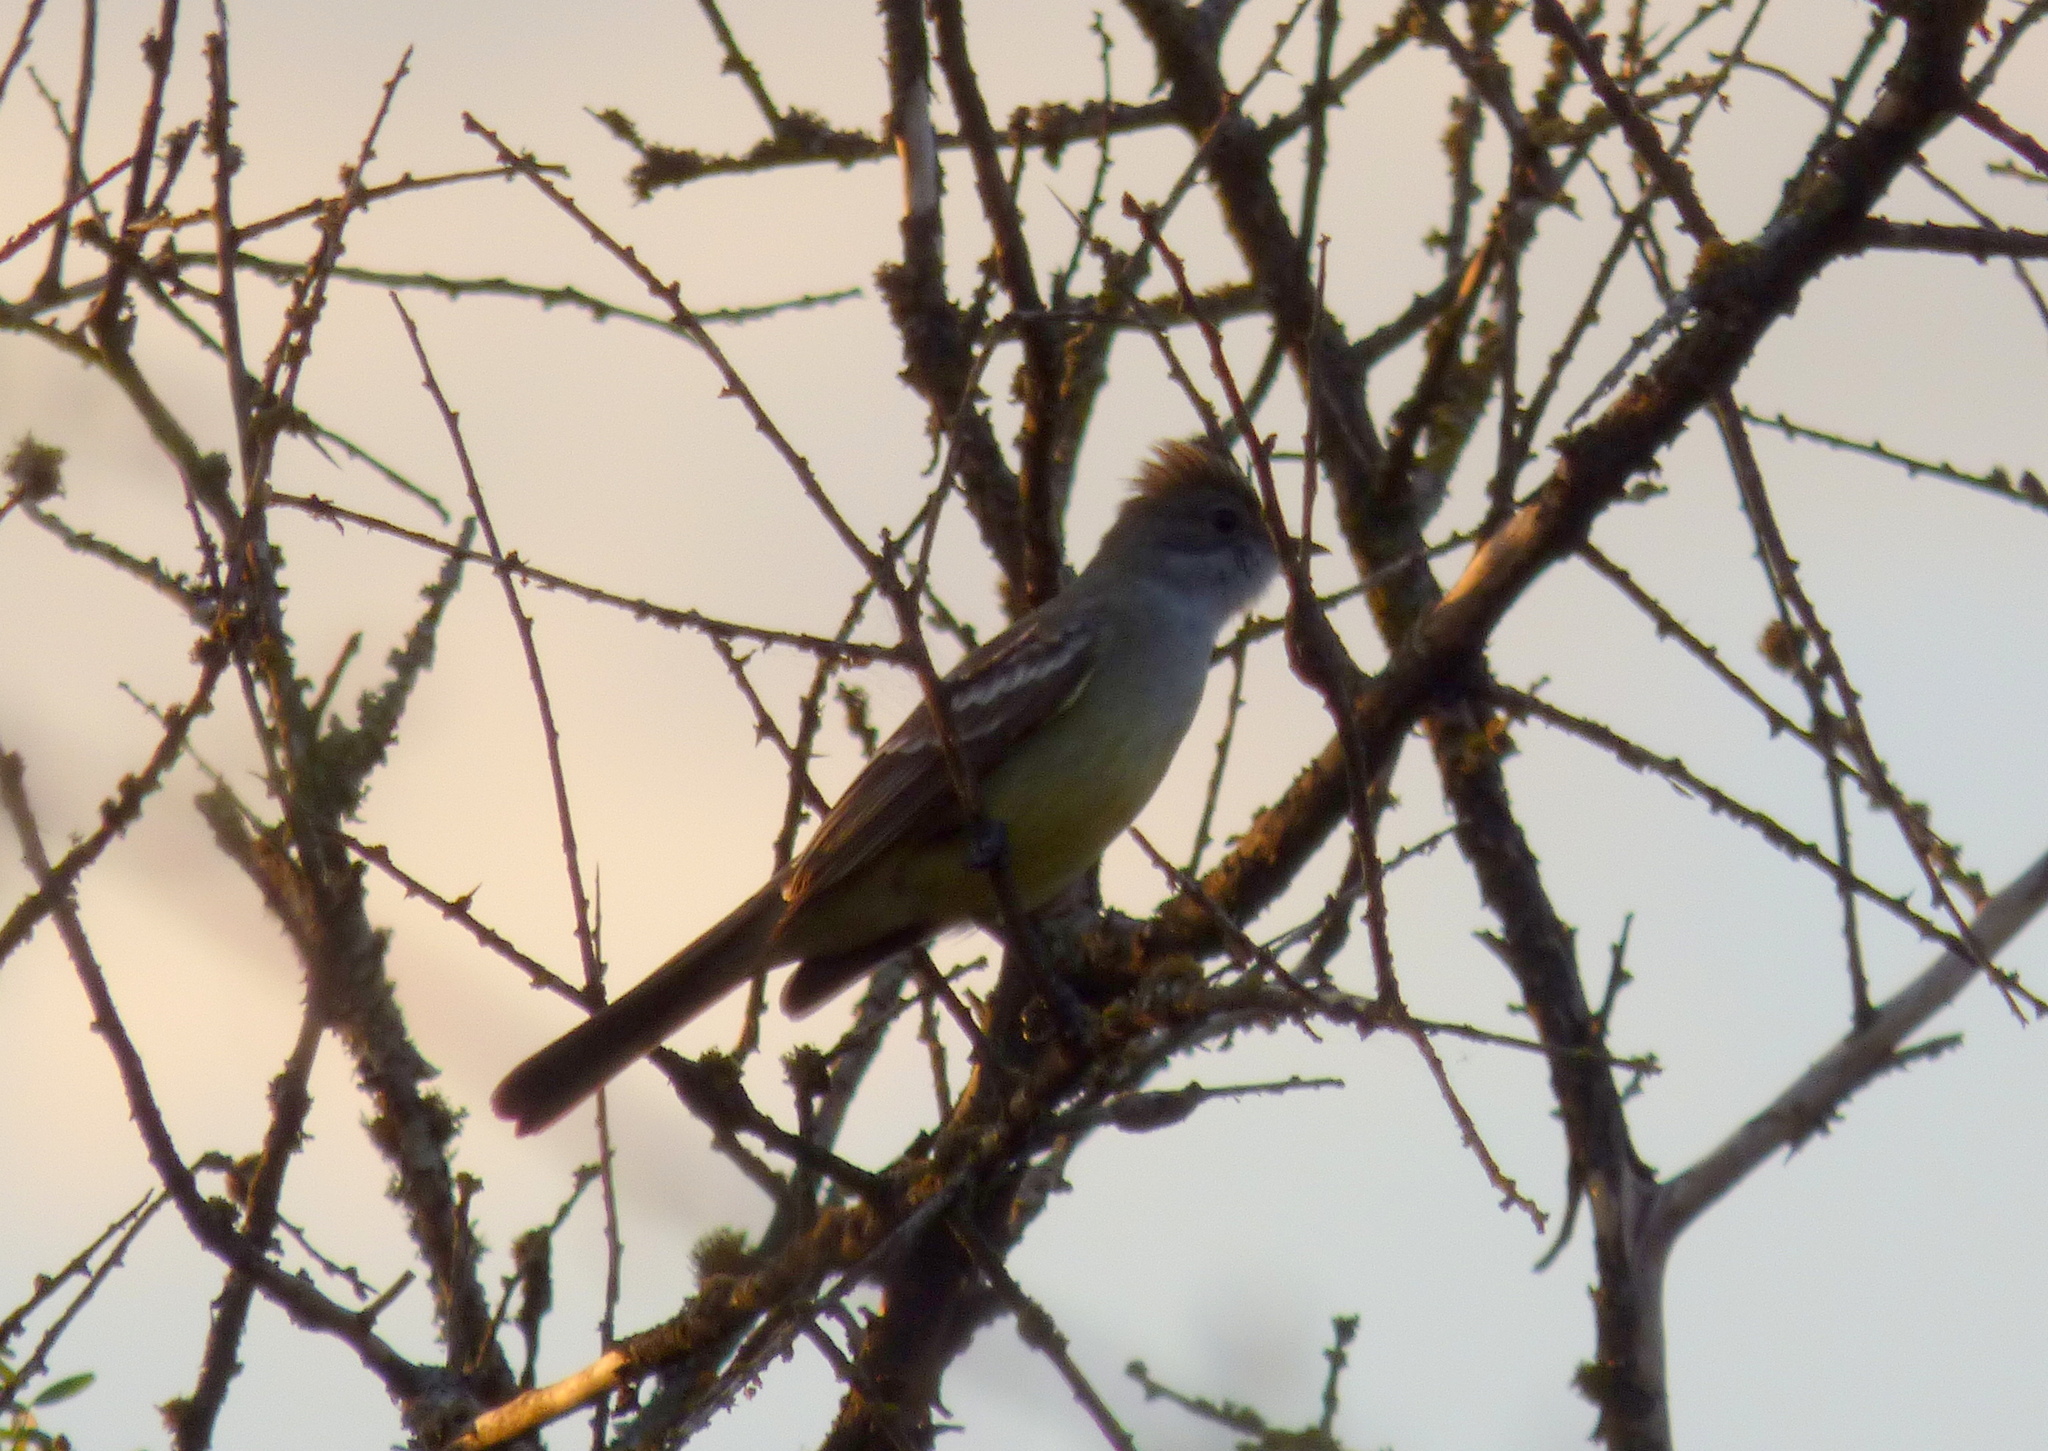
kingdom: Animalia
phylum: Chordata
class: Aves
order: Passeriformes
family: Tyrannidae
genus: Elaenia
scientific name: Elaenia spectabilis
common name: Large elaenia
